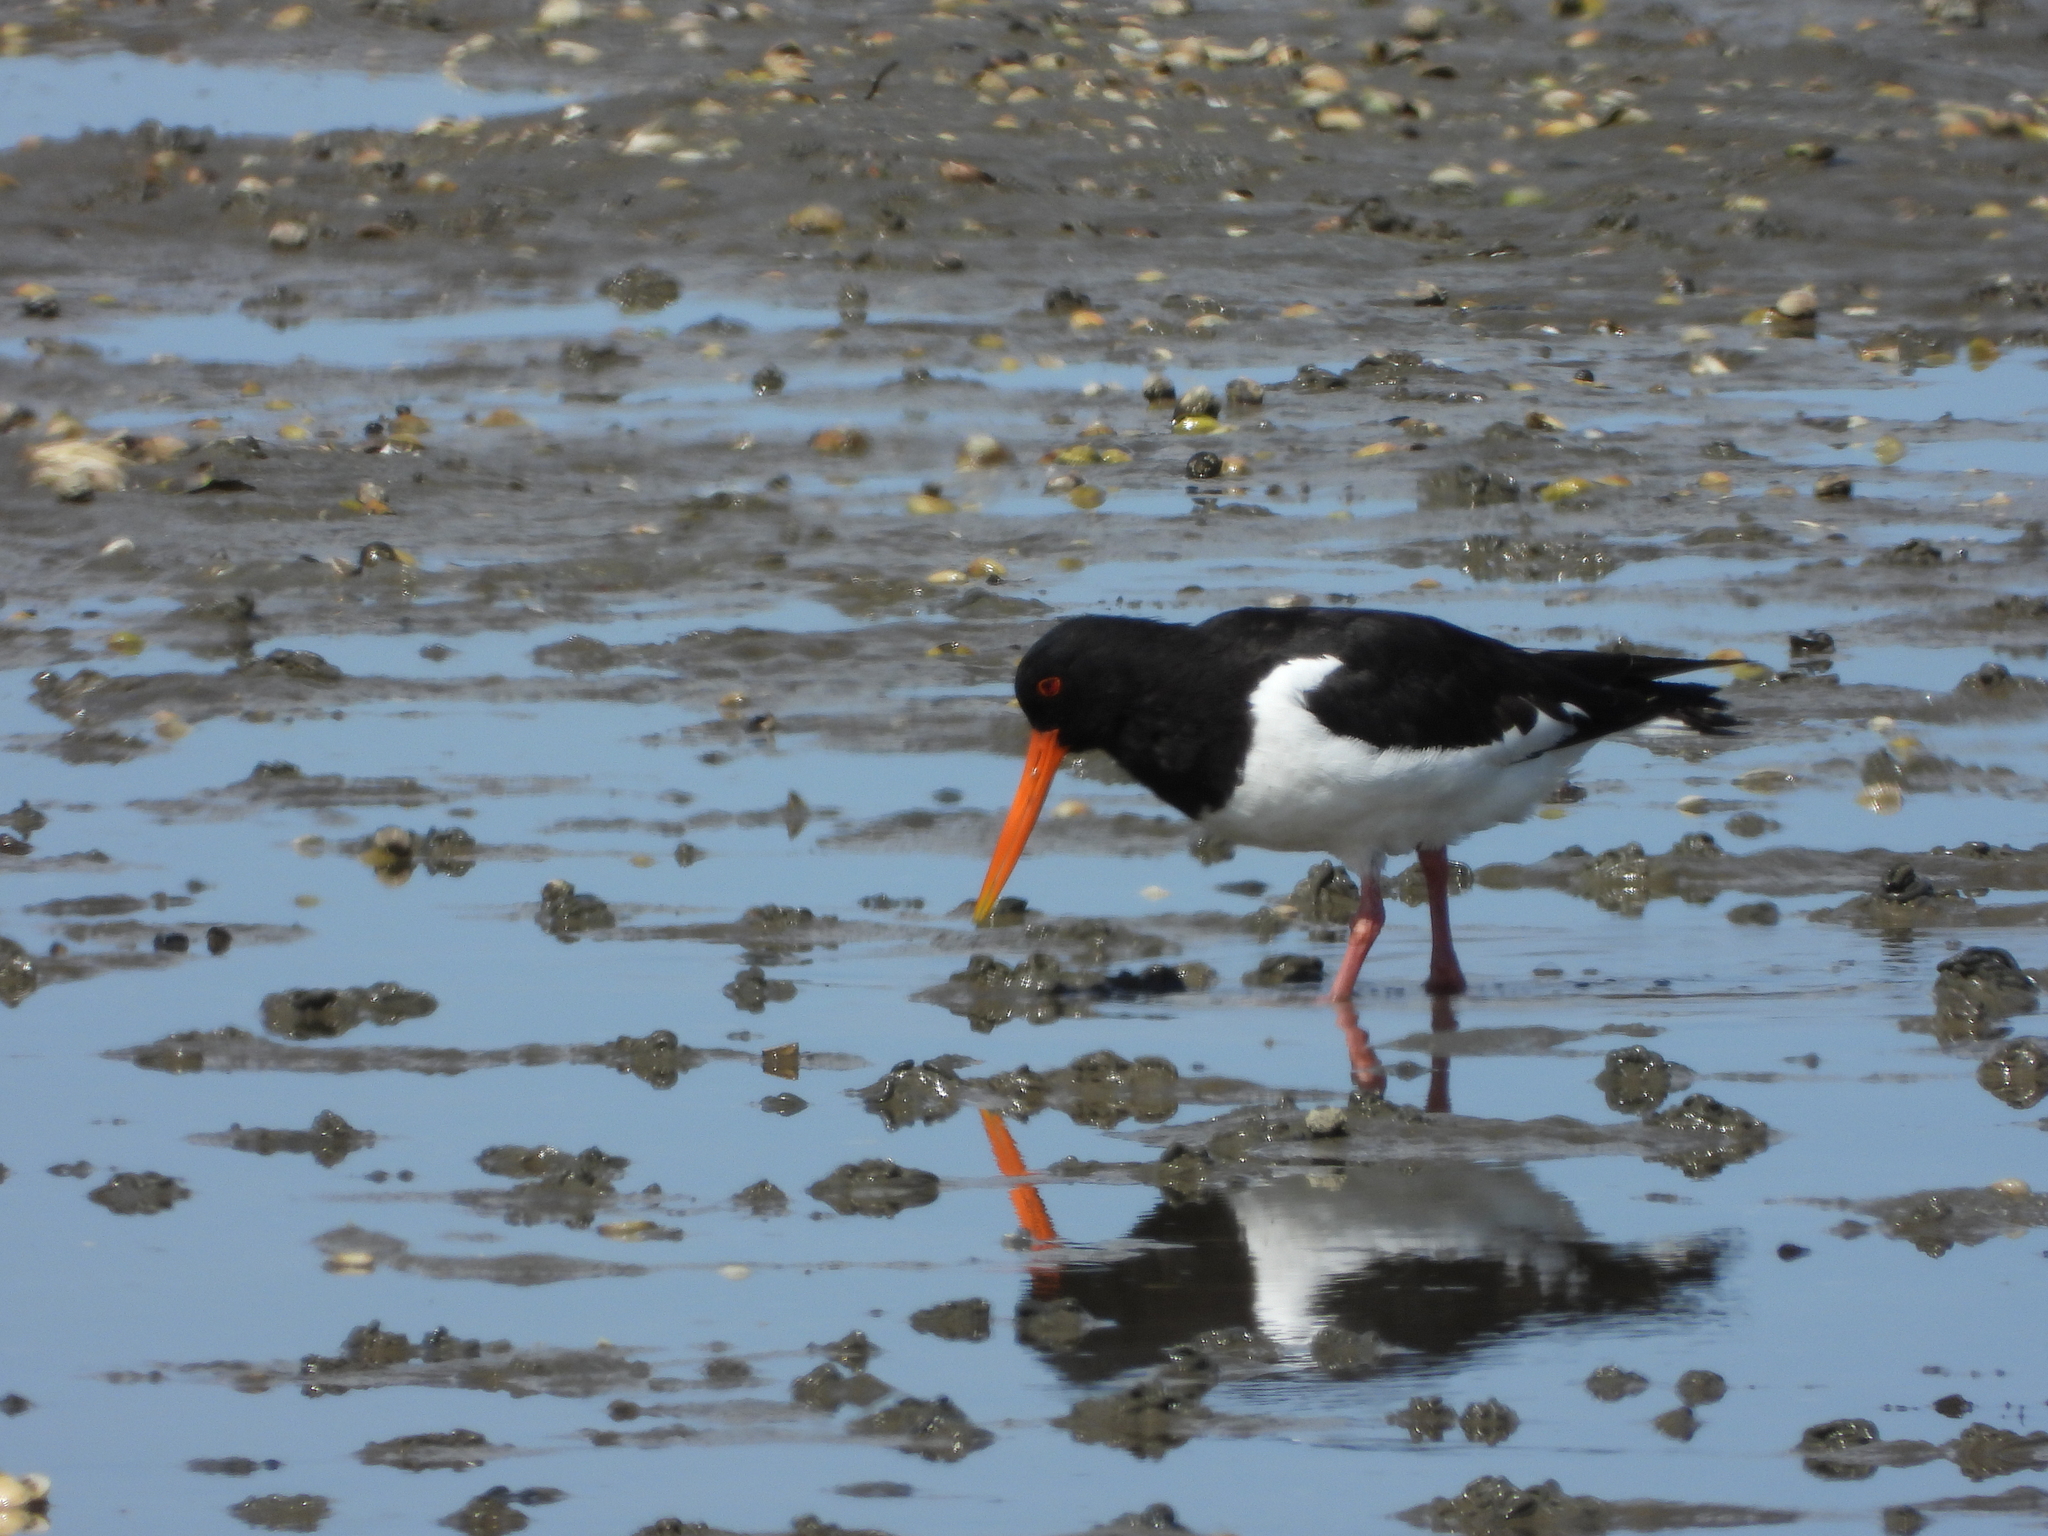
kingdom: Animalia
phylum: Chordata
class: Aves
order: Charadriiformes
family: Haematopodidae
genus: Haematopus
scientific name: Haematopus ostralegus
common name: Eurasian oystercatcher
